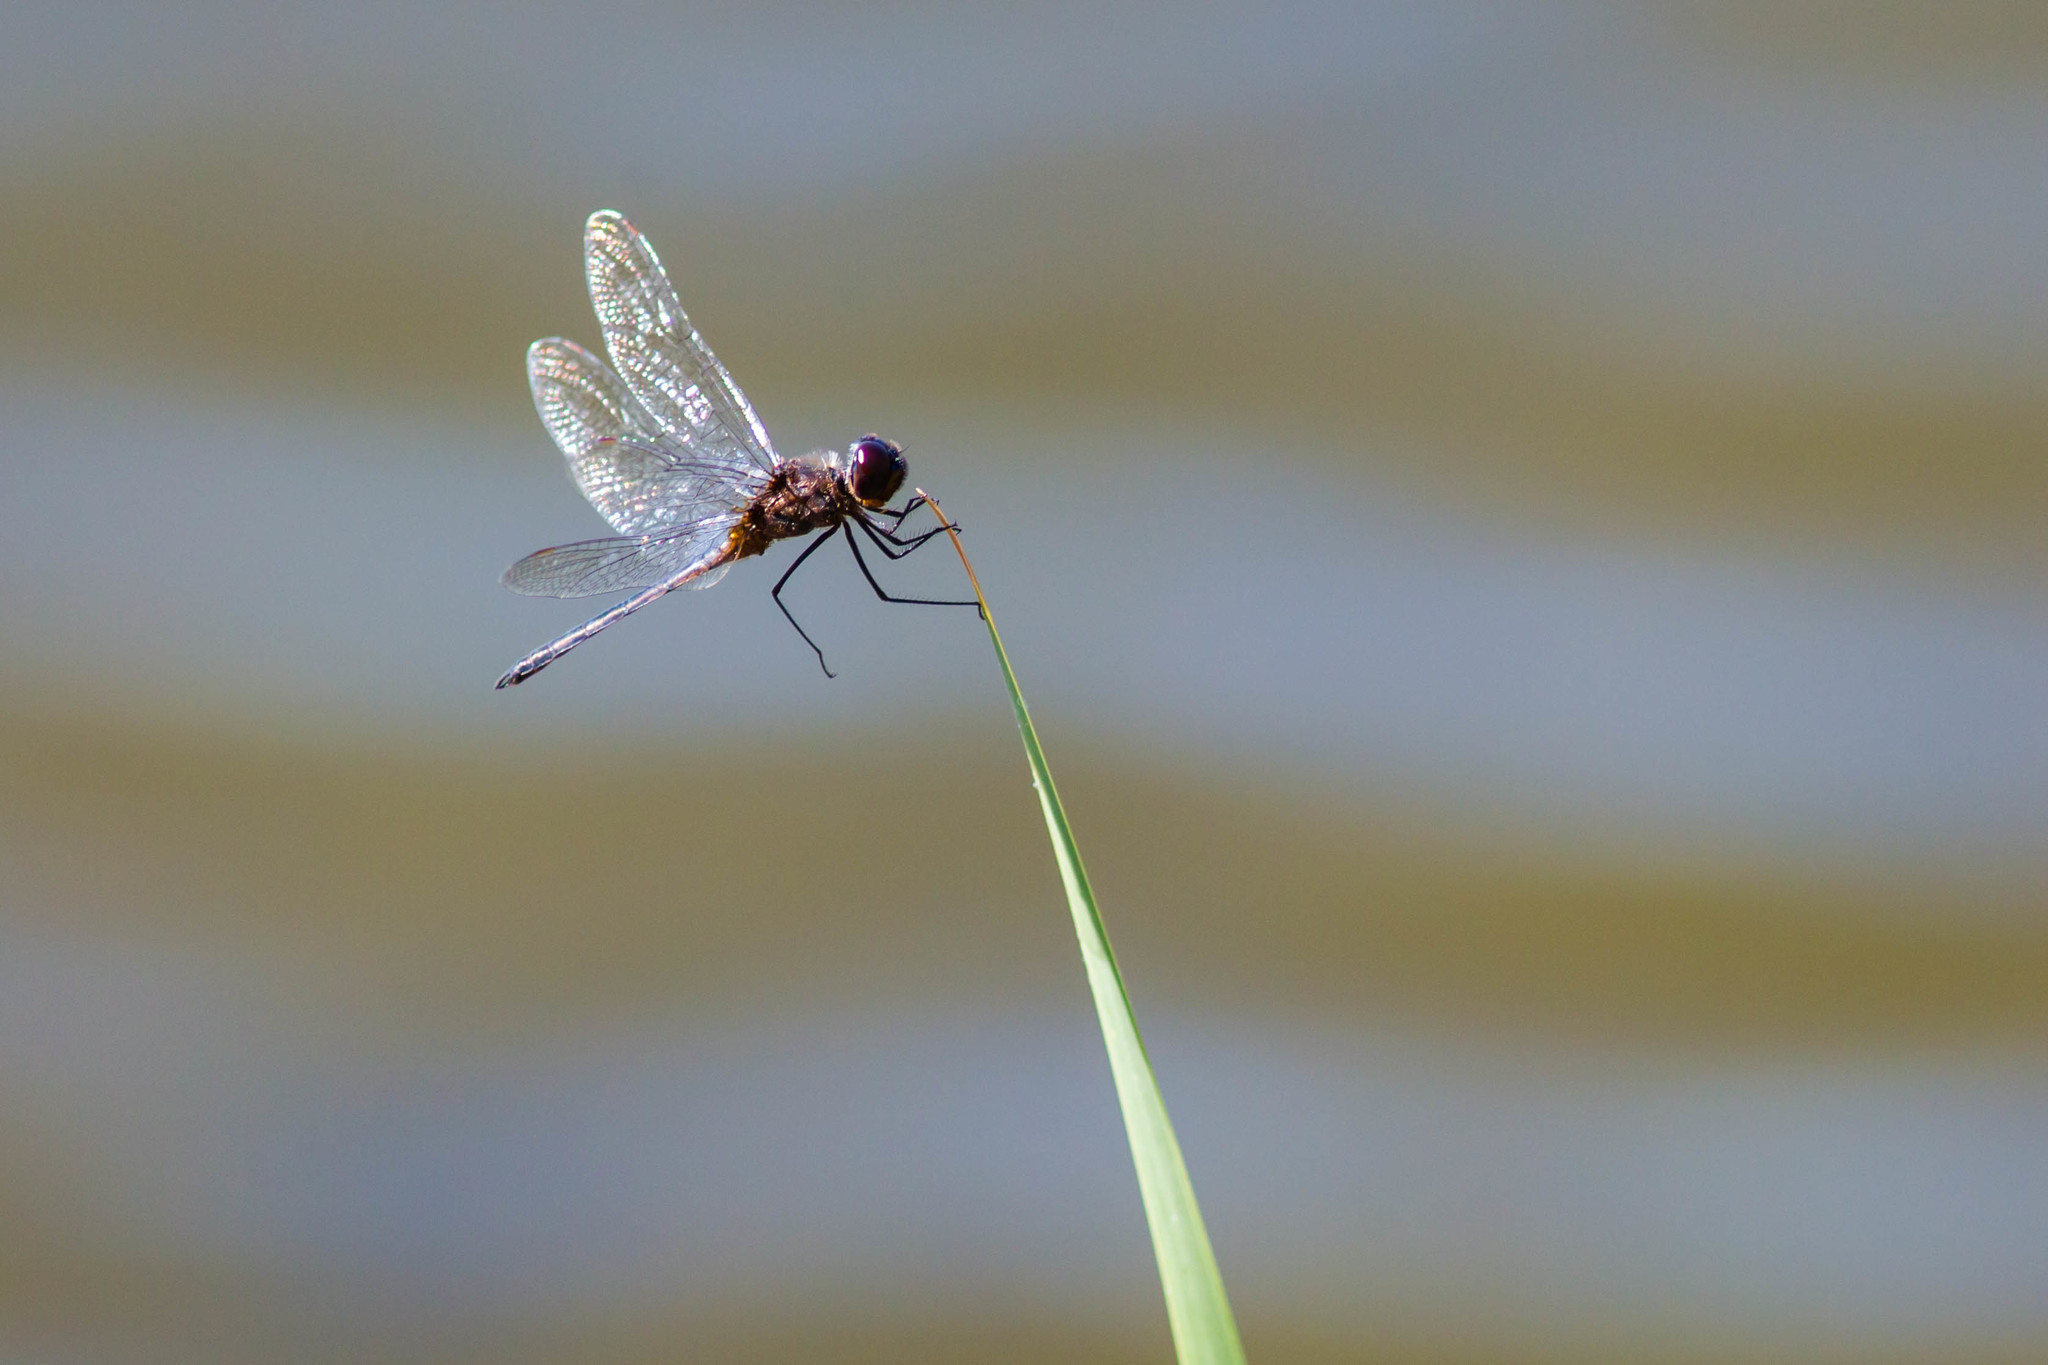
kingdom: Animalia
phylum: Arthropoda
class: Insecta
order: Odonata
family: Libellulidae
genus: Idiataphe
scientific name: Idiataphe cubensis
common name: Metallic pennant
